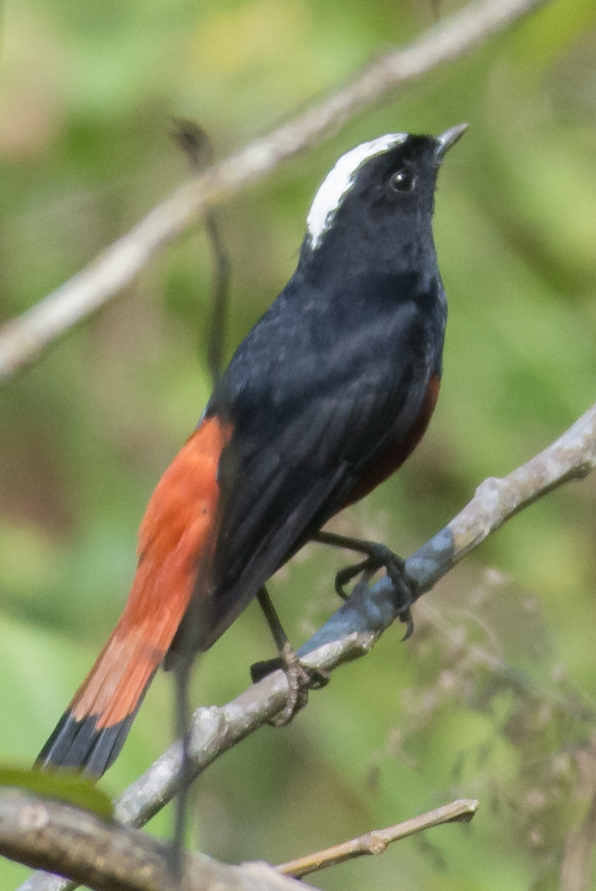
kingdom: Animalia
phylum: Chordata
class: Aves
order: Passeriformes
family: Muscicapidae
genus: Chaimarrornis
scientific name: Chaimarrornis leucocephalus
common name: White-capped redstart
